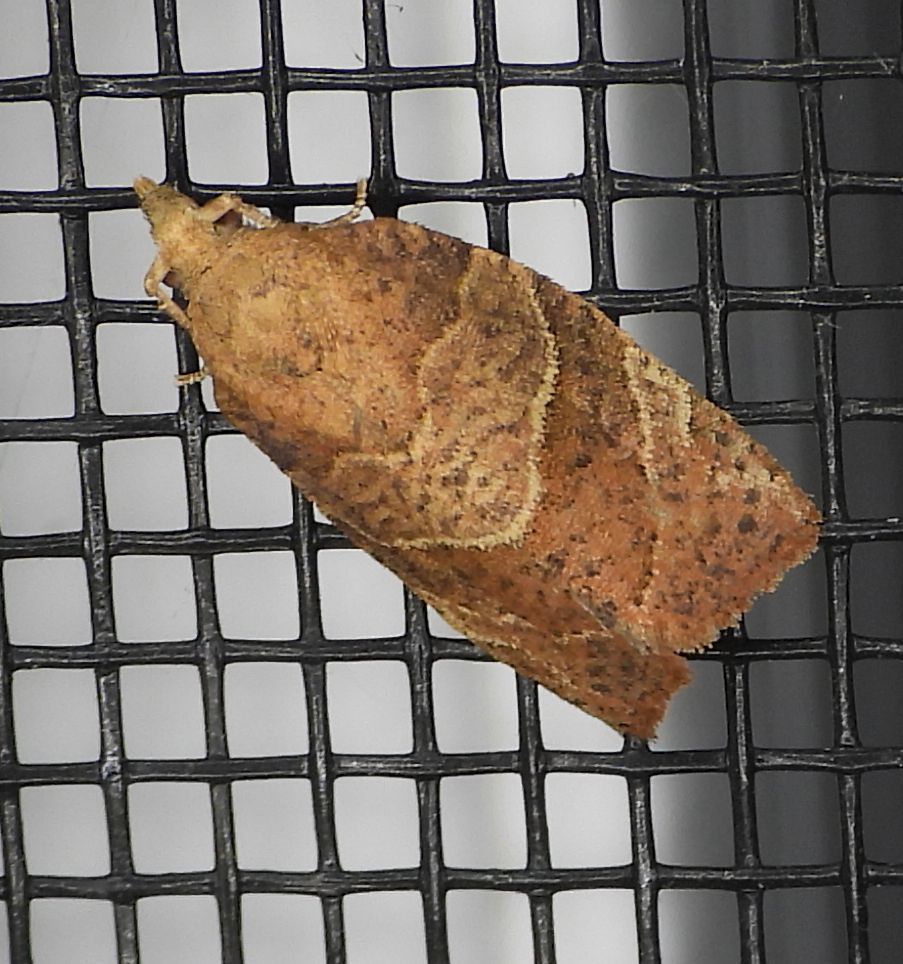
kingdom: Animalia
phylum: Arthropoda
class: Insecta
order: Lepidoptera
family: Tortricidae
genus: Pandemis
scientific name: Pandemis limitata
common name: Three-lined leafroller moth
